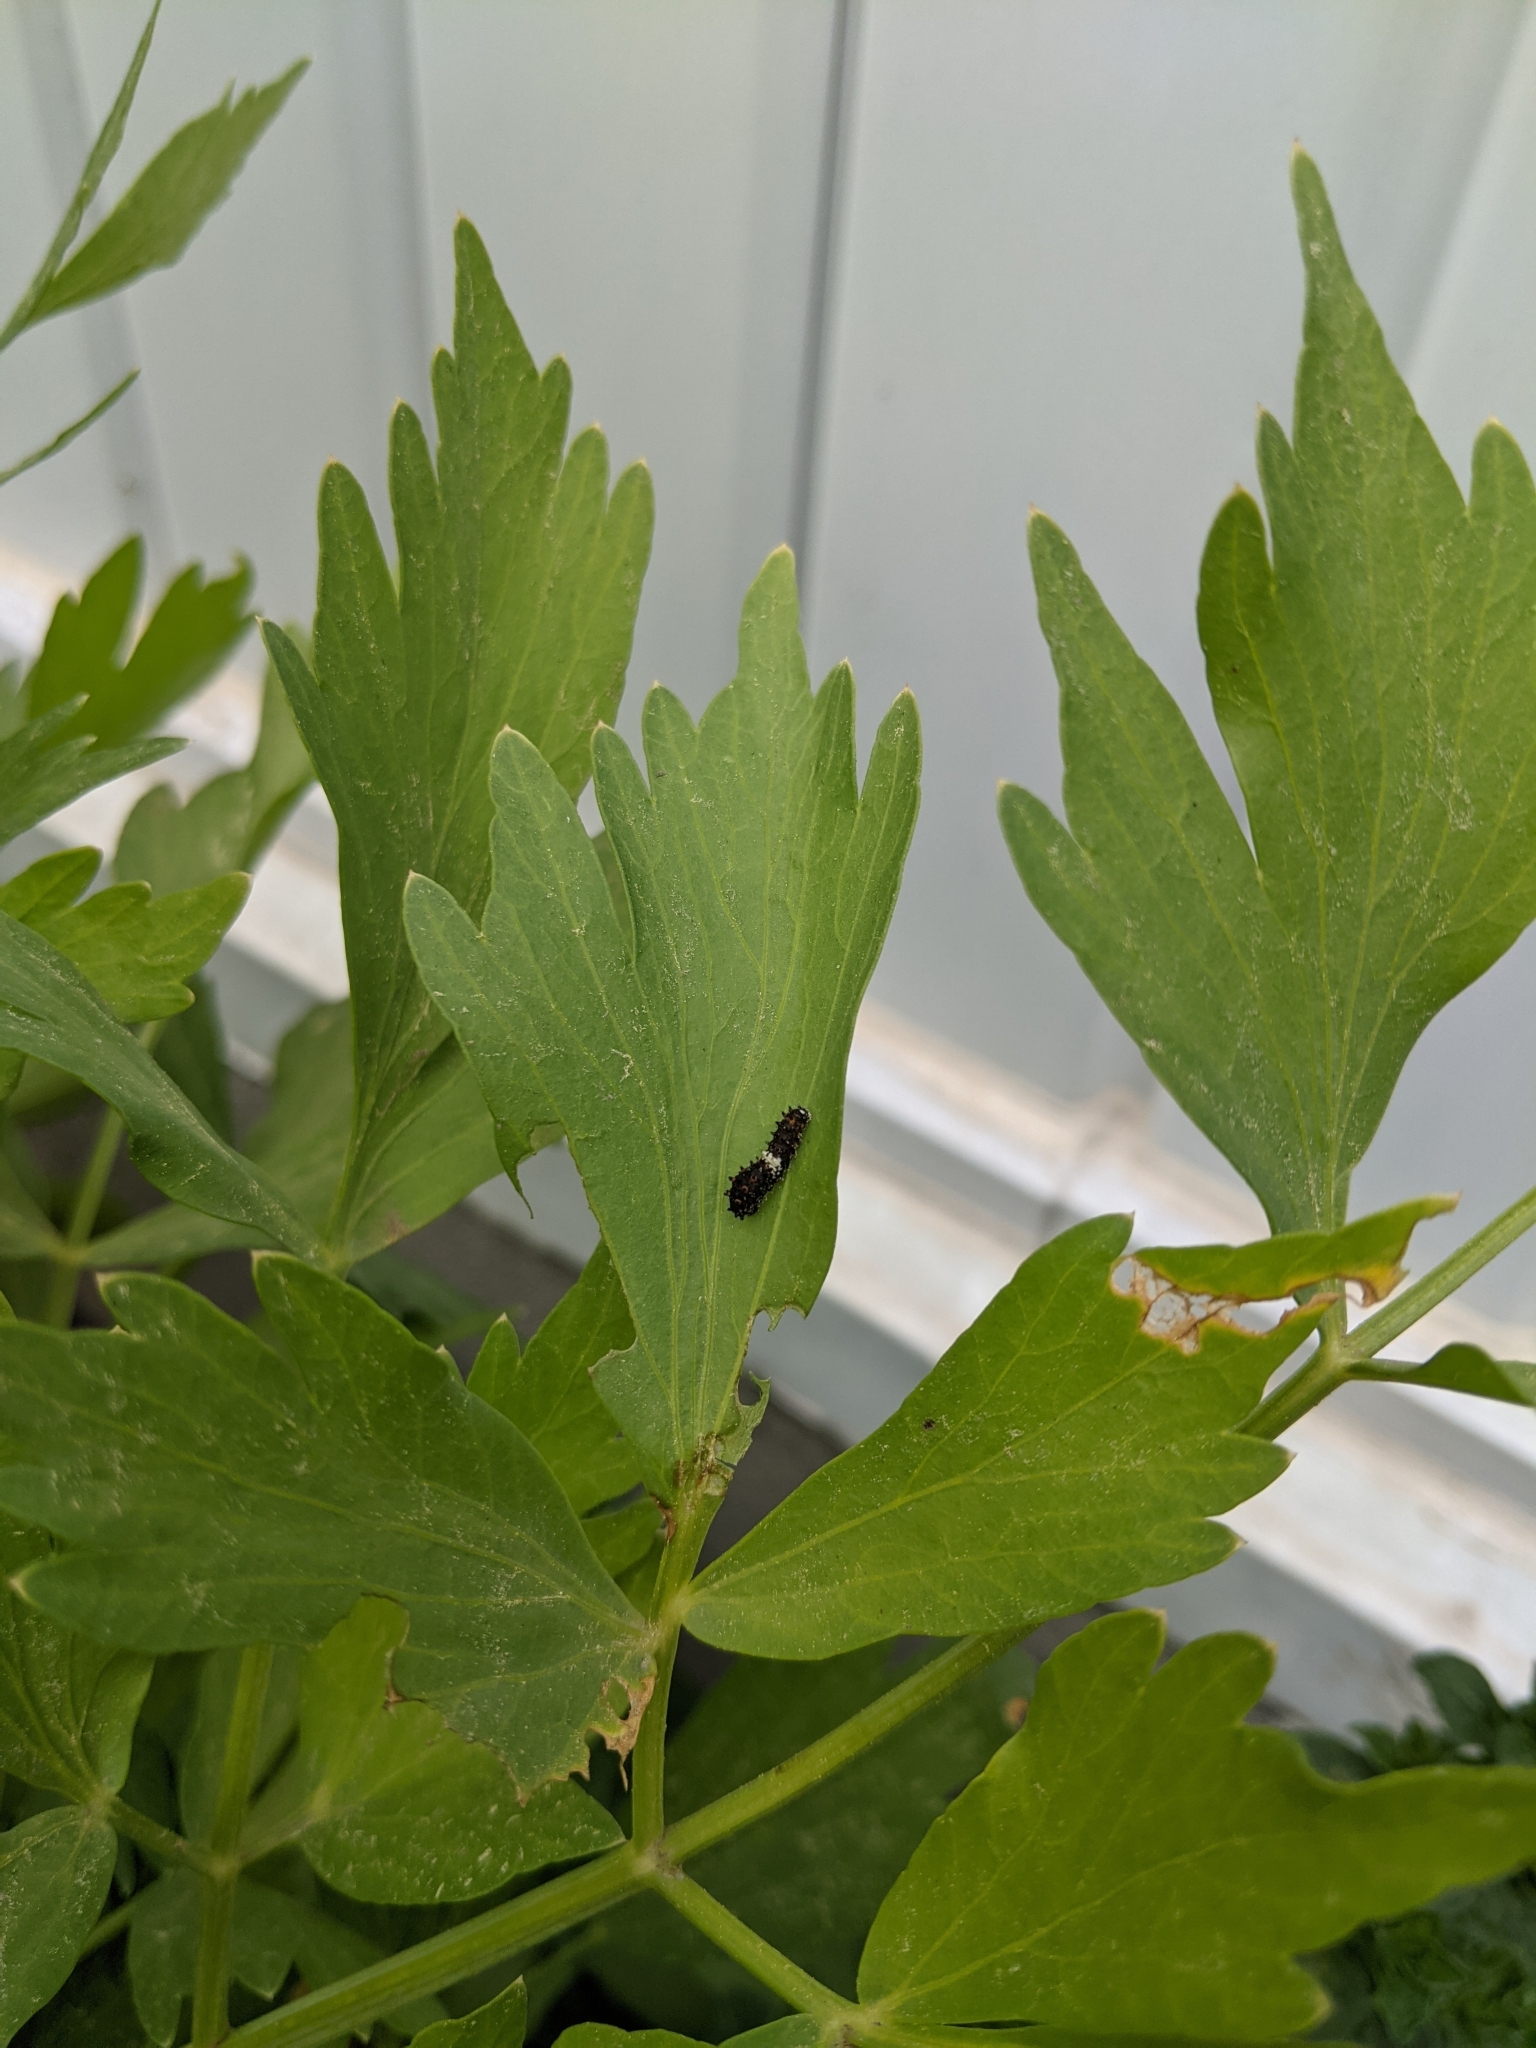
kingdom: Animalia
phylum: Arthropoda
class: Insecta
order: Lepidoptera
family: Papilionidae
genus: Papilio
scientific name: Papilio polyxenes
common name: Black swallowtail
